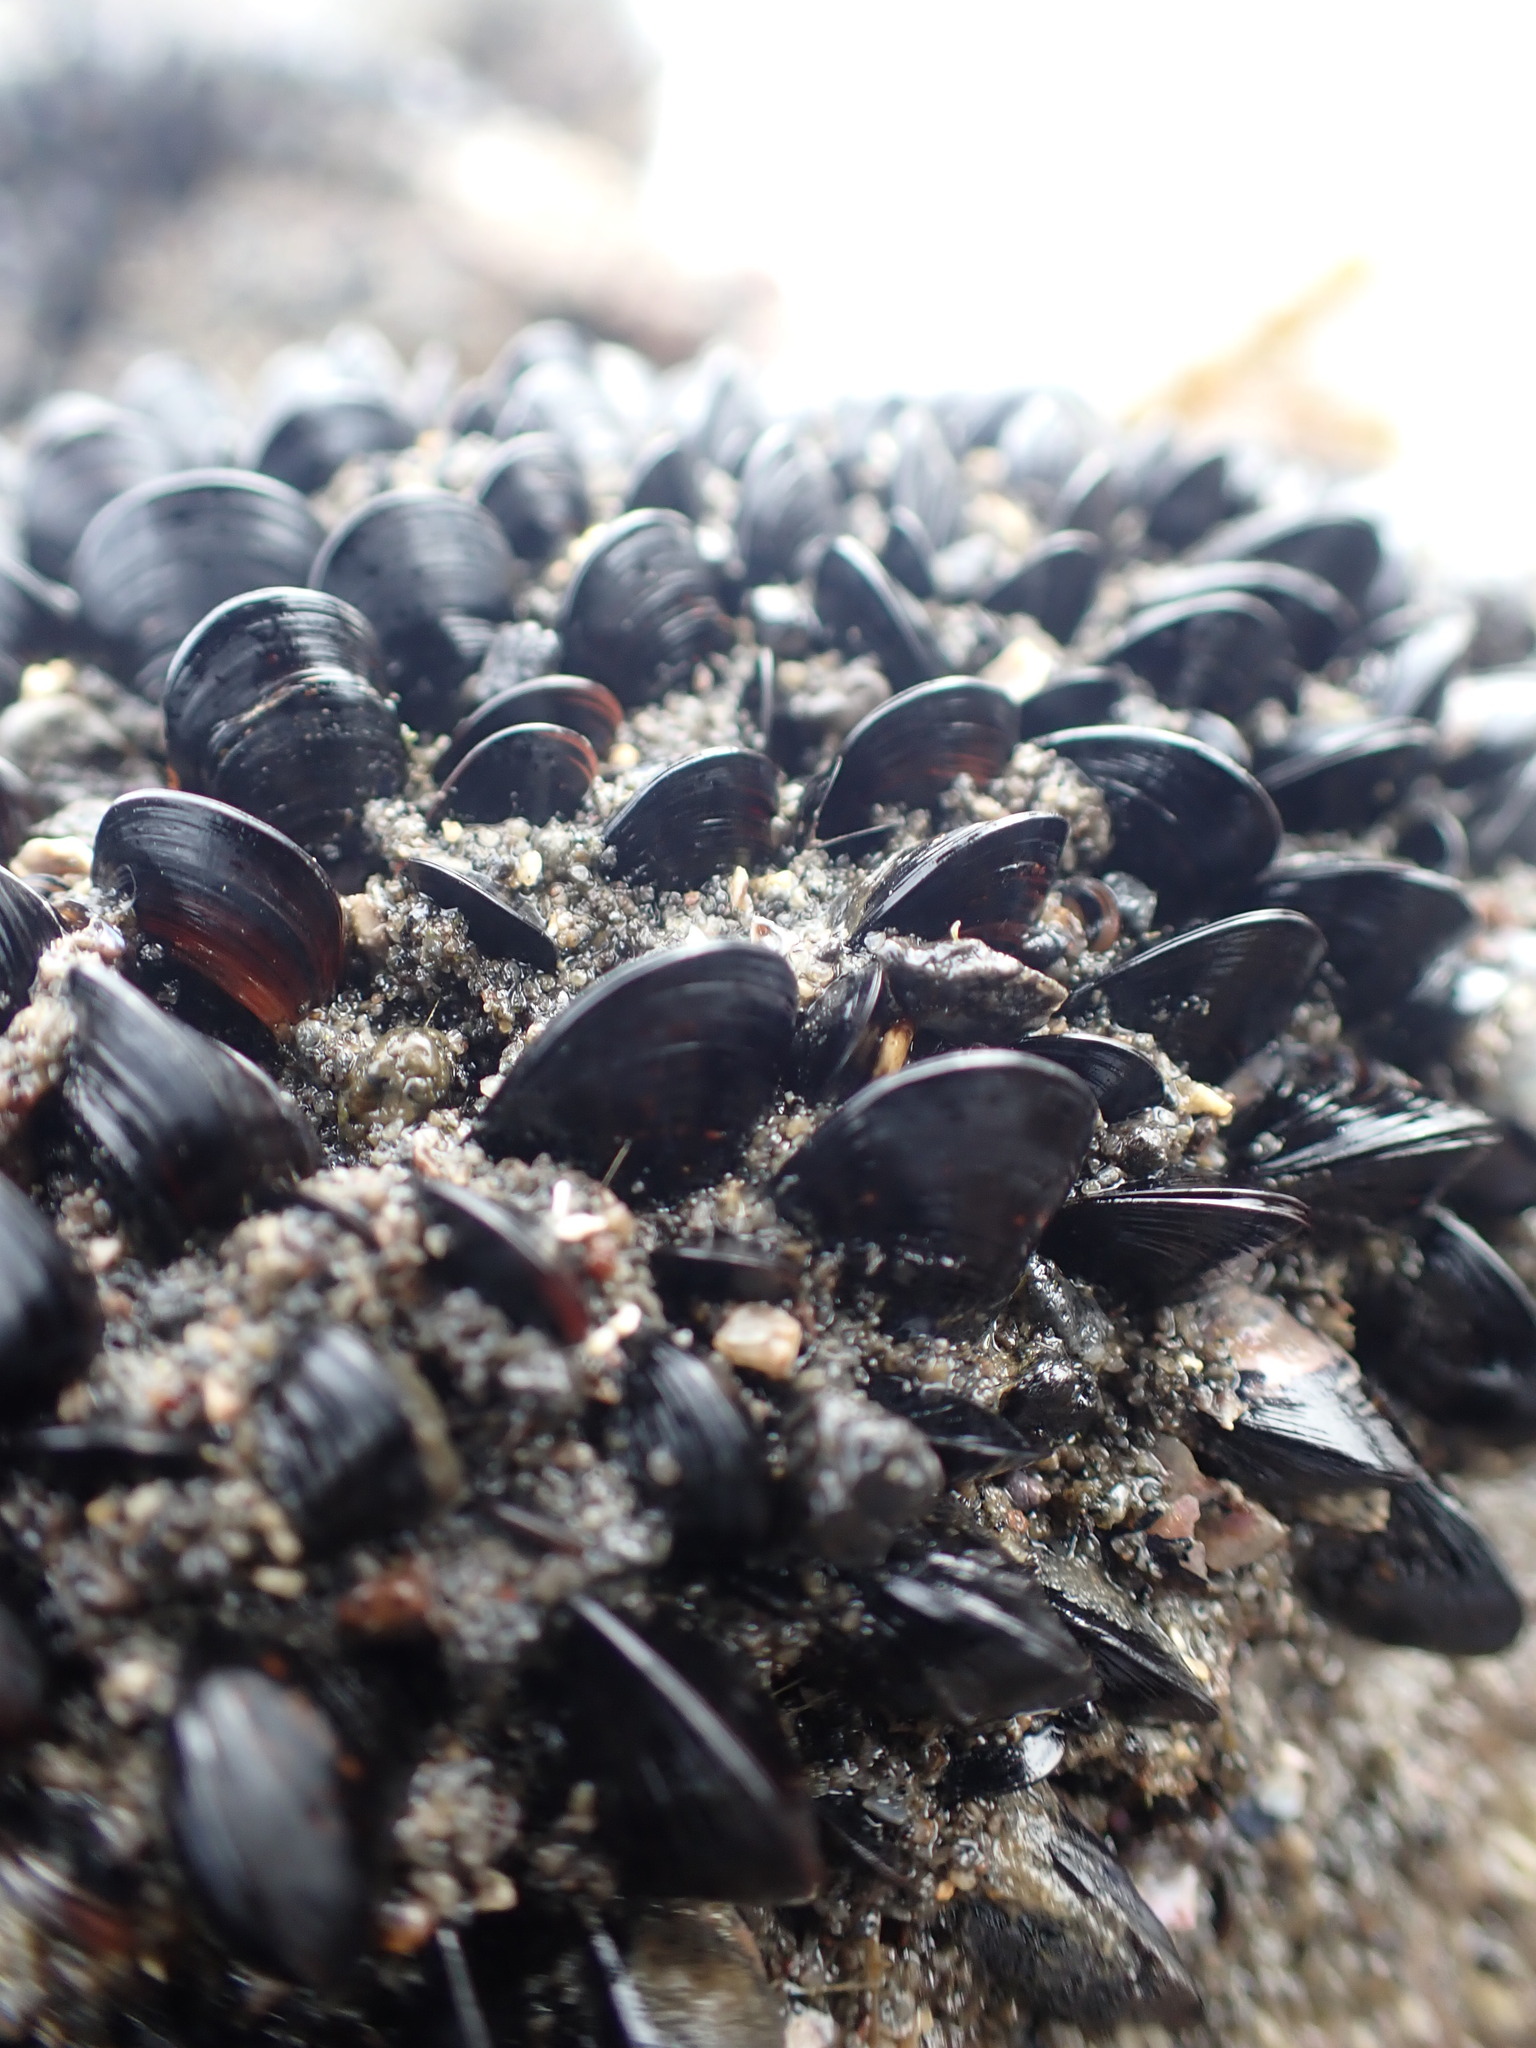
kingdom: Animalia
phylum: Mollusca
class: Bivalvia
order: Mytilida
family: Mytilidae
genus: Xenostrobus
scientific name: Xenostrobus neozelanicus
